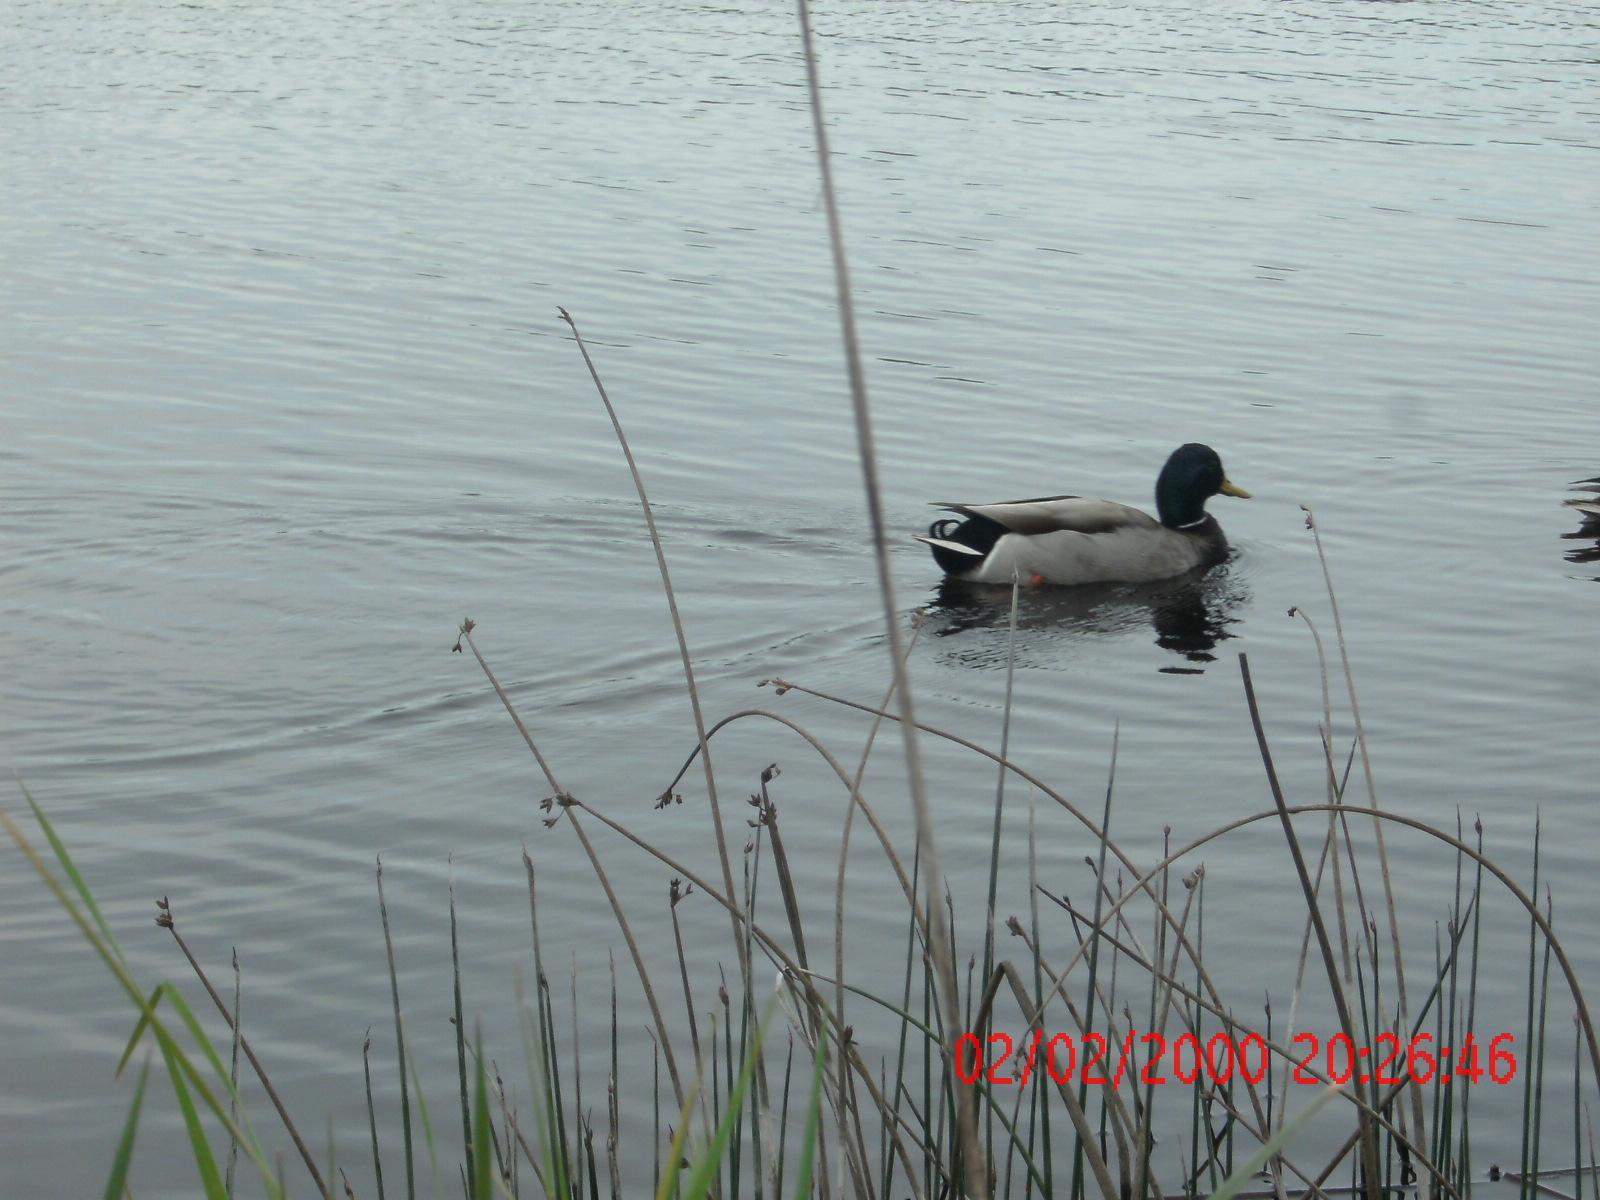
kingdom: Animalia
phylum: Chordata
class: Aves
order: Anseriformes
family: Anatidae
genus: Anas
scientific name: Anas platyrhynchos
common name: Mallard
